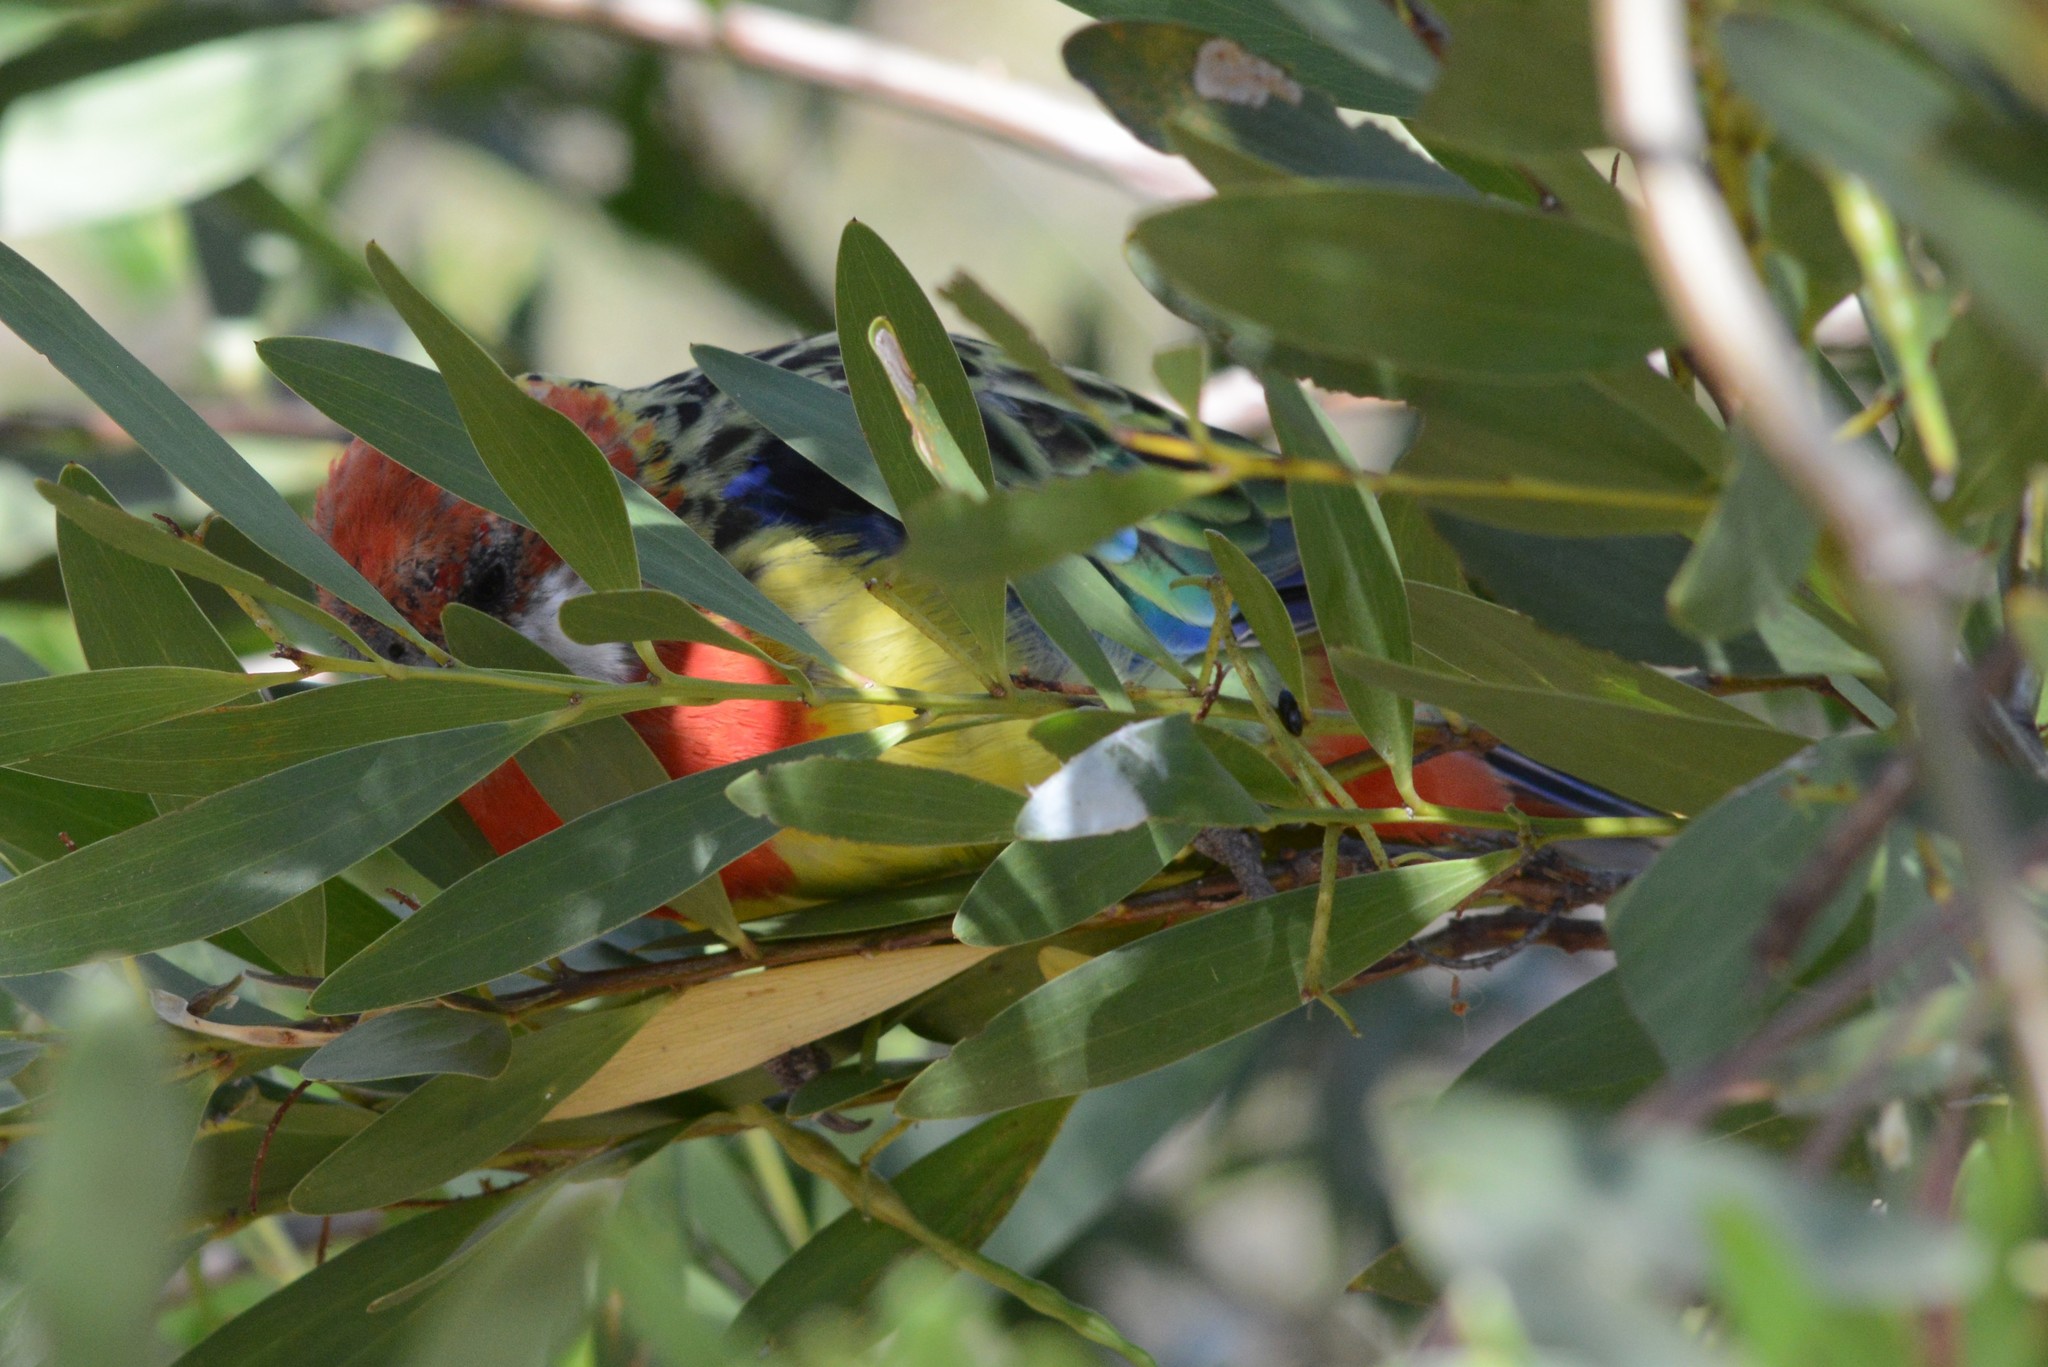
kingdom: Animalia
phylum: Chordata
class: Aves
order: Psittaciformes
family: Psittacidae
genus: Platycercus
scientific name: Platycercus eximius
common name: Eastern rosella
